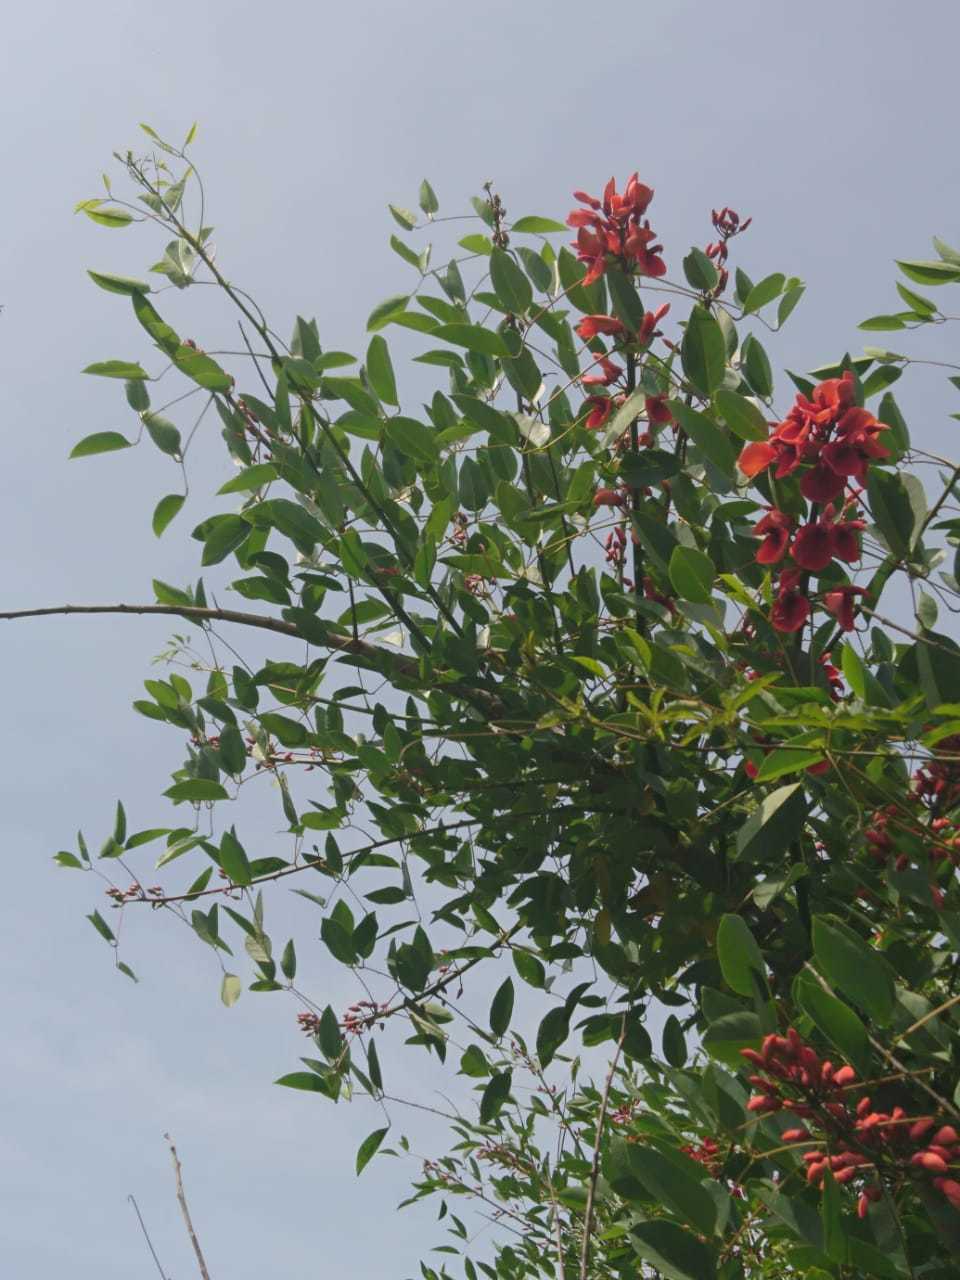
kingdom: Plantae
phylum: Tracheophyta
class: Magnoliopsida
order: Fabales
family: Fabaceae
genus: Erythrina
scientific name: Erythrina crista-galli
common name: Cockspur coral tree
